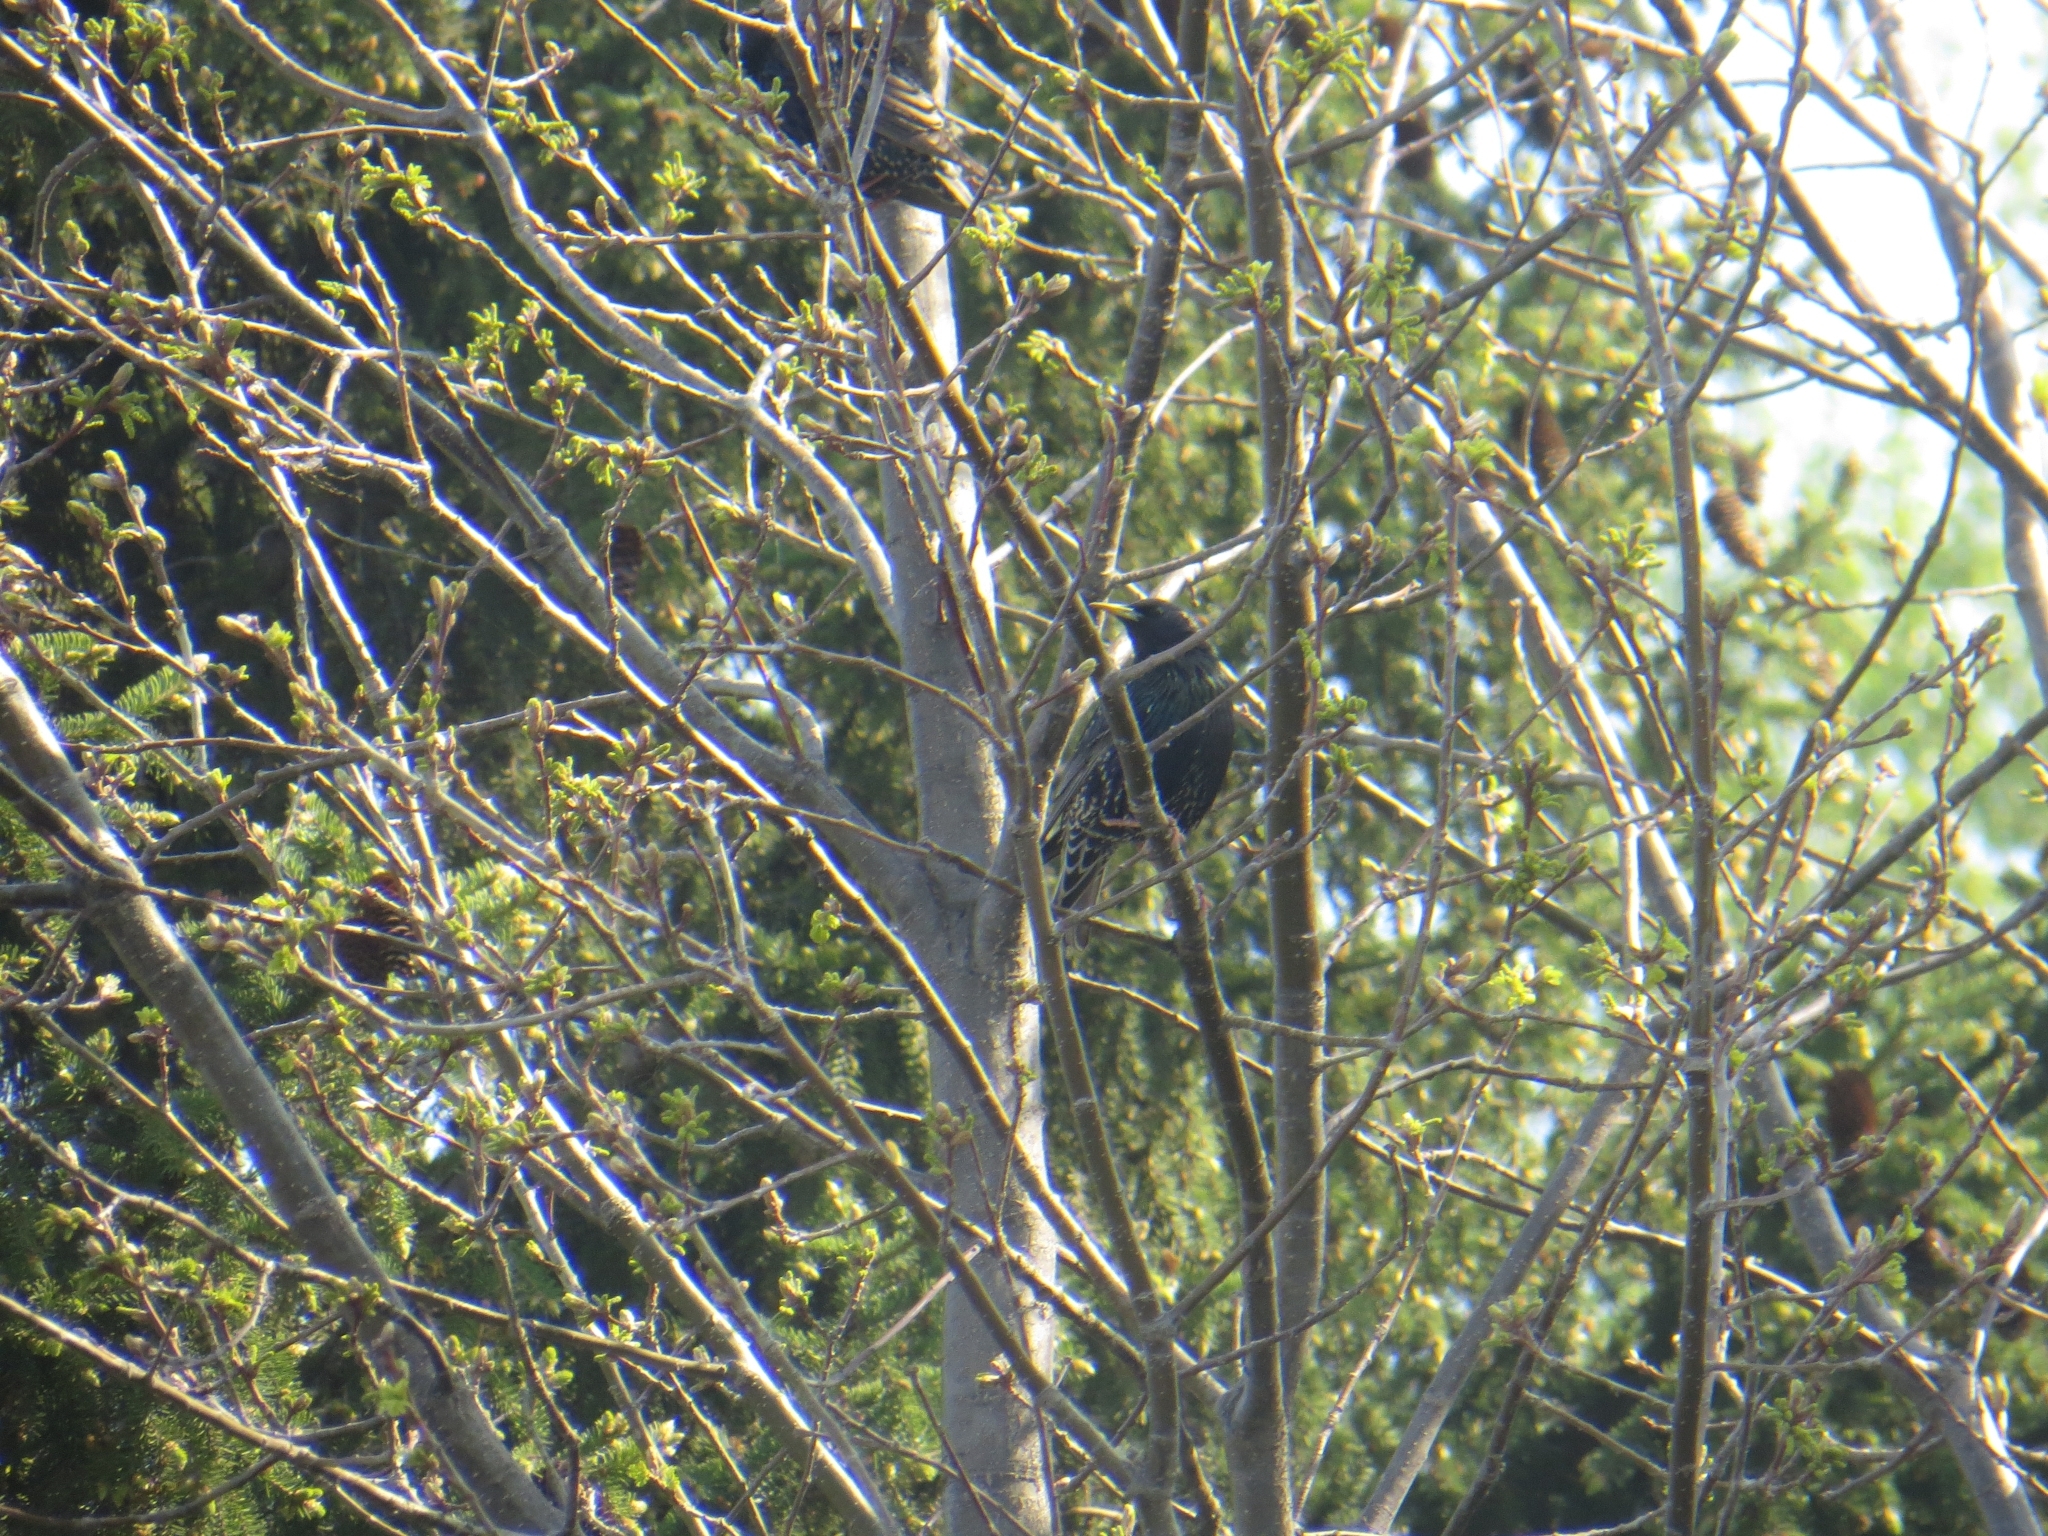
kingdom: Animalia
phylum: Chordata
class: Aves
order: Passeriformes
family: Sturnidae
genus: Sturnus
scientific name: Sturnus vulgaris
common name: Common starling
